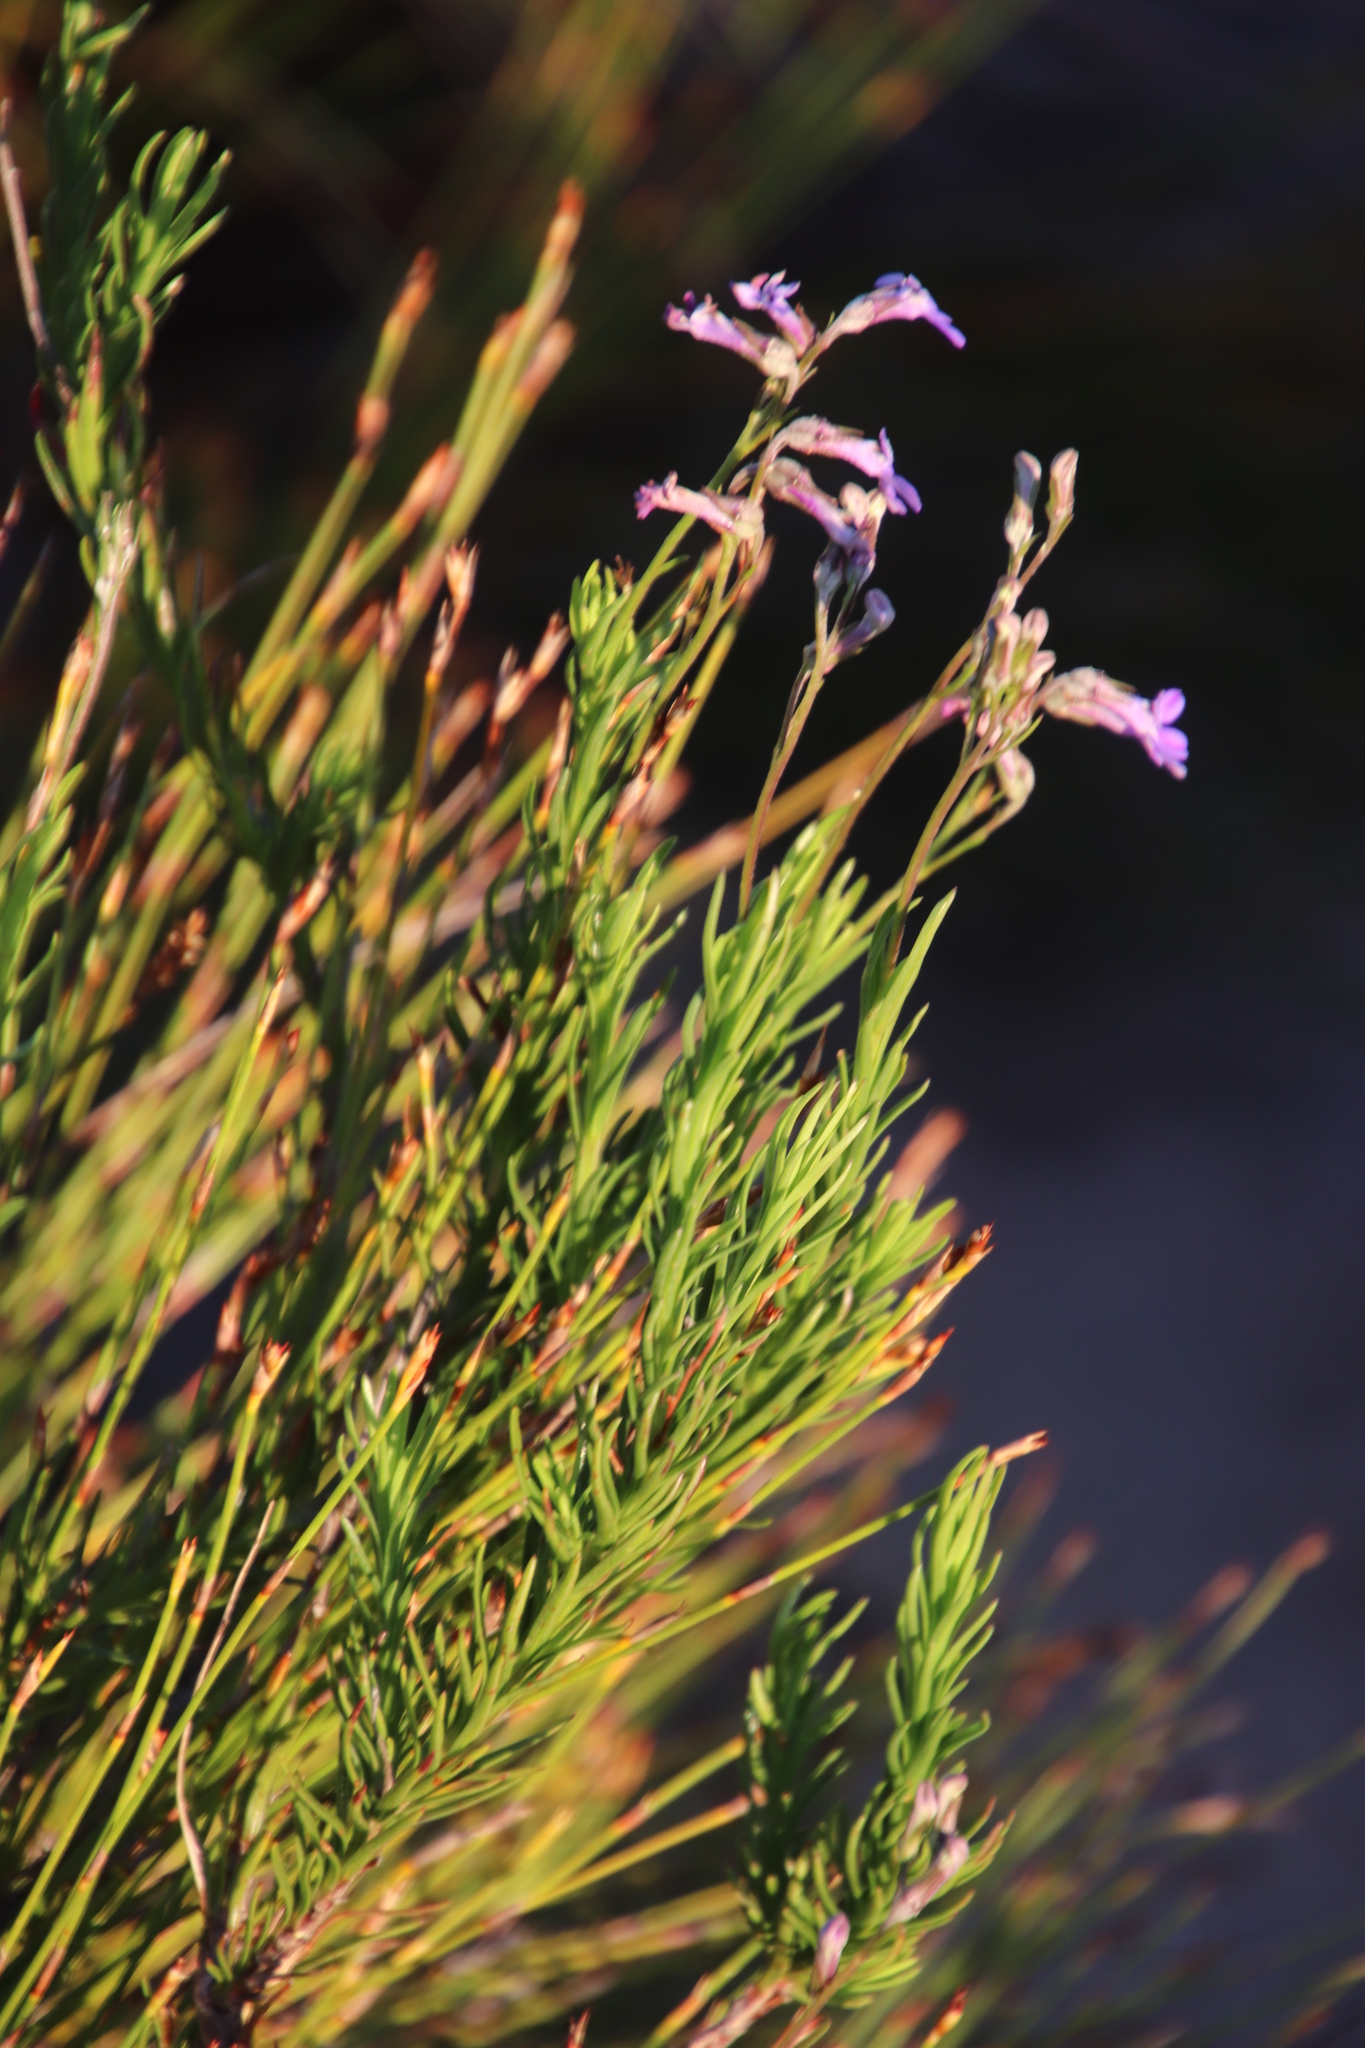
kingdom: Plantae
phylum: Tracheophyta
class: Magnoliopsida
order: Asterales
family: Campanulaceae
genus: Lobelia
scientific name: Lobelia pinifolia
